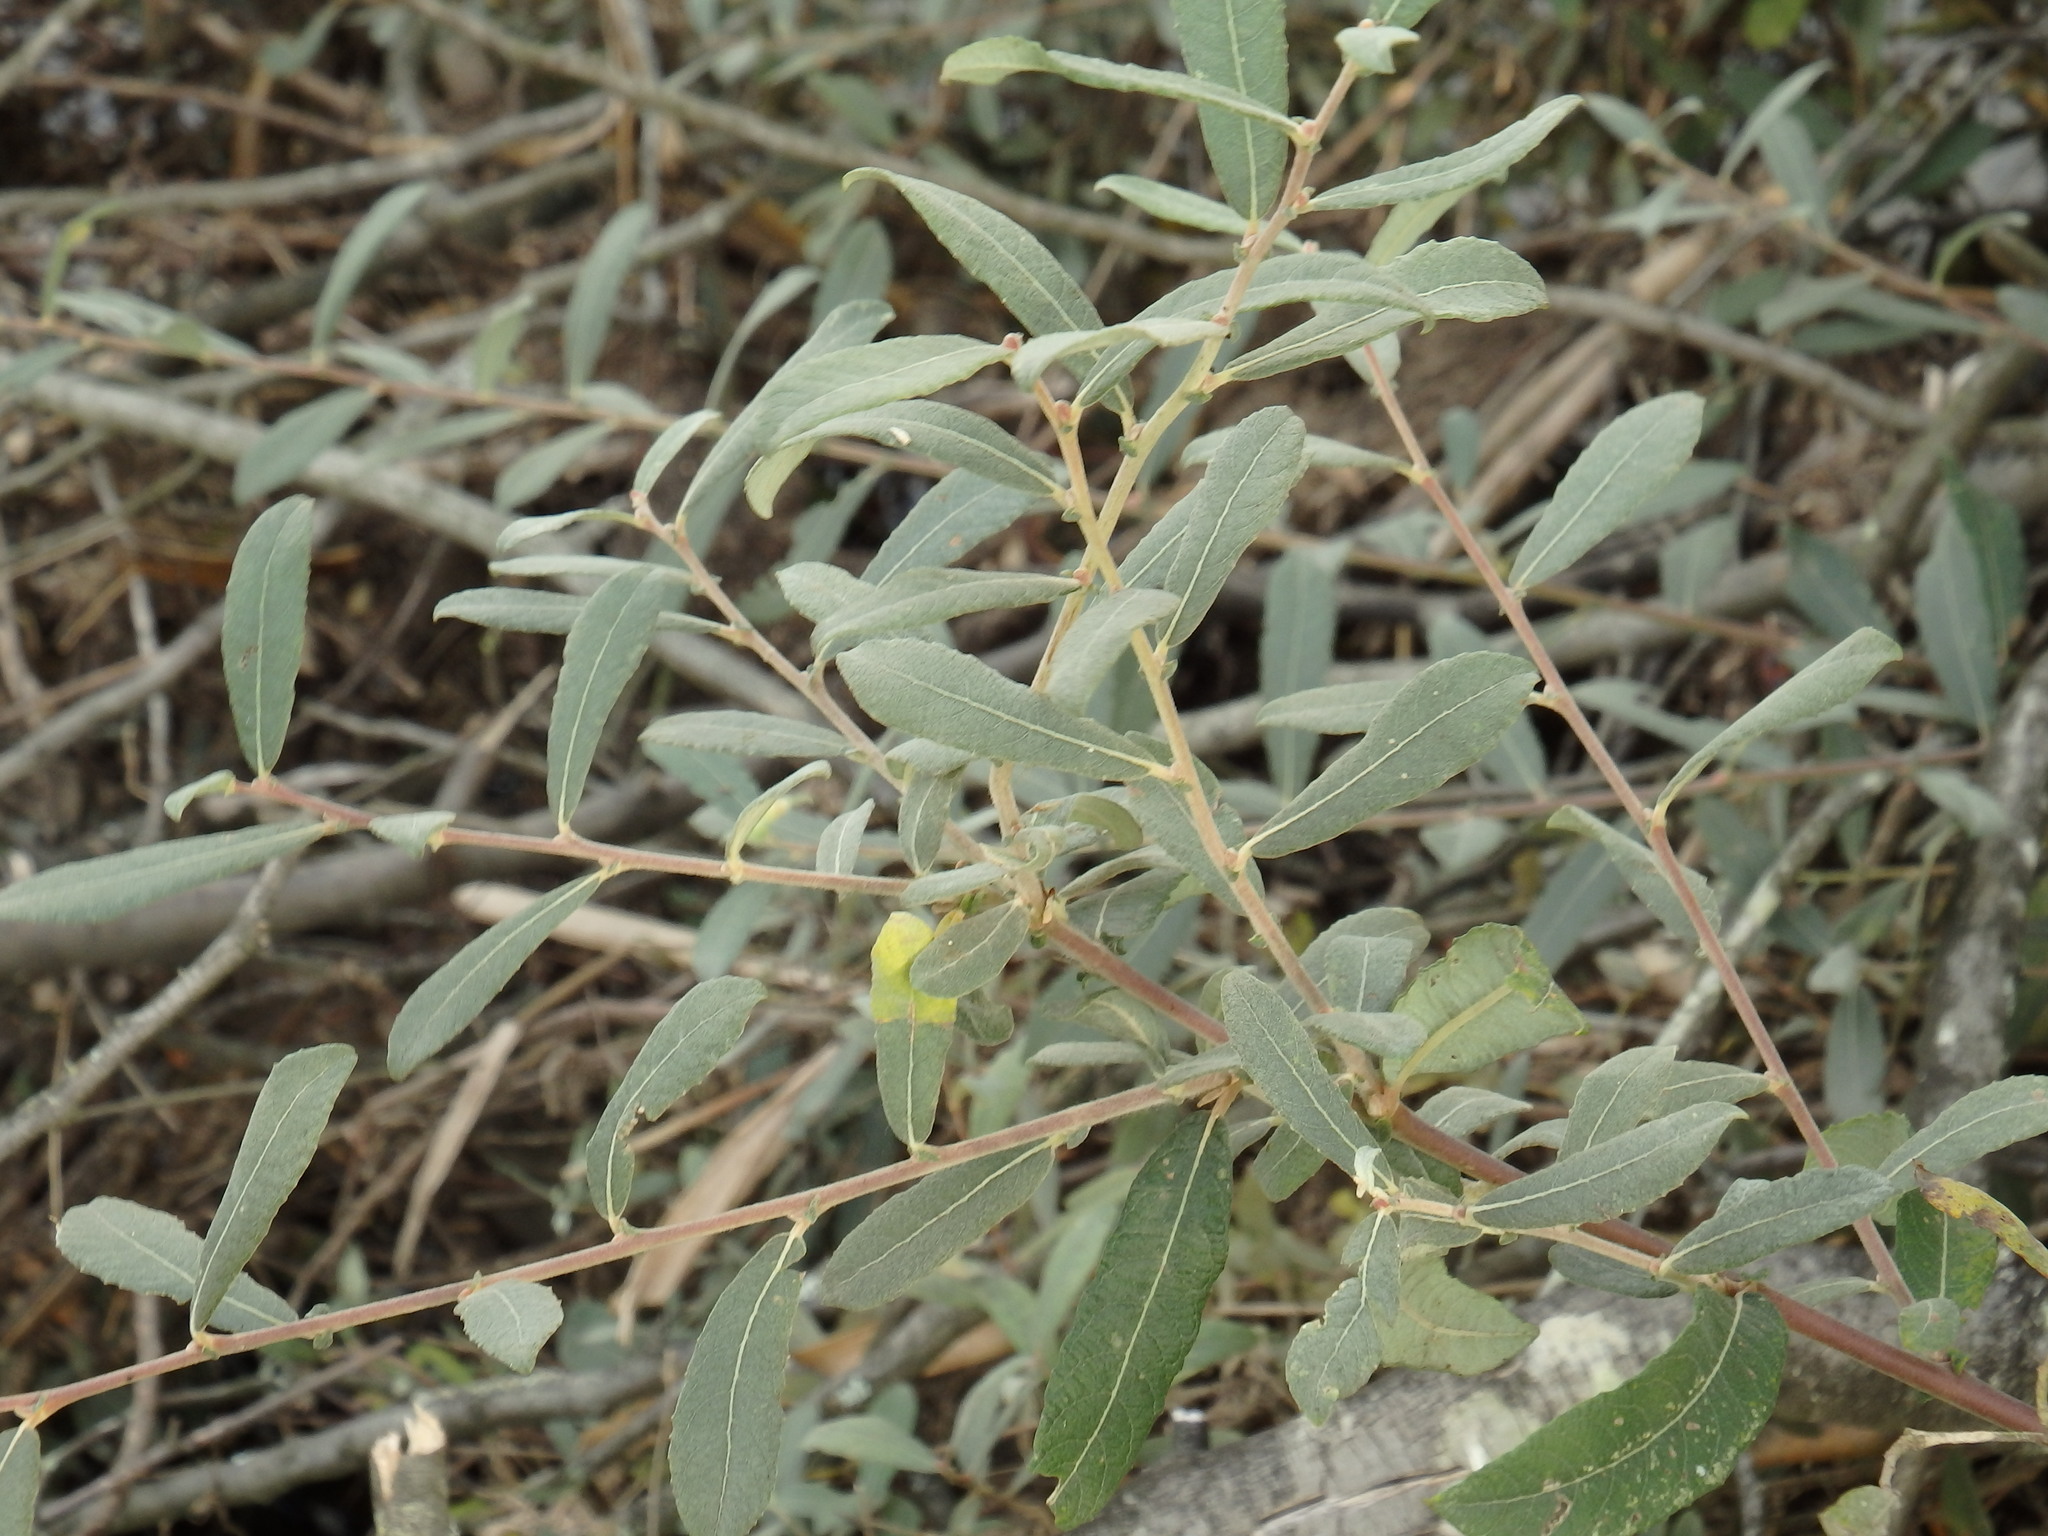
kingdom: Plantae
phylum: Tracheophyta
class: Magnoliopsida
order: Malpighiales
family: Salicaceae
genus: Salix
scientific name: Salix salviifolia
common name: Salvia-leaf willow
